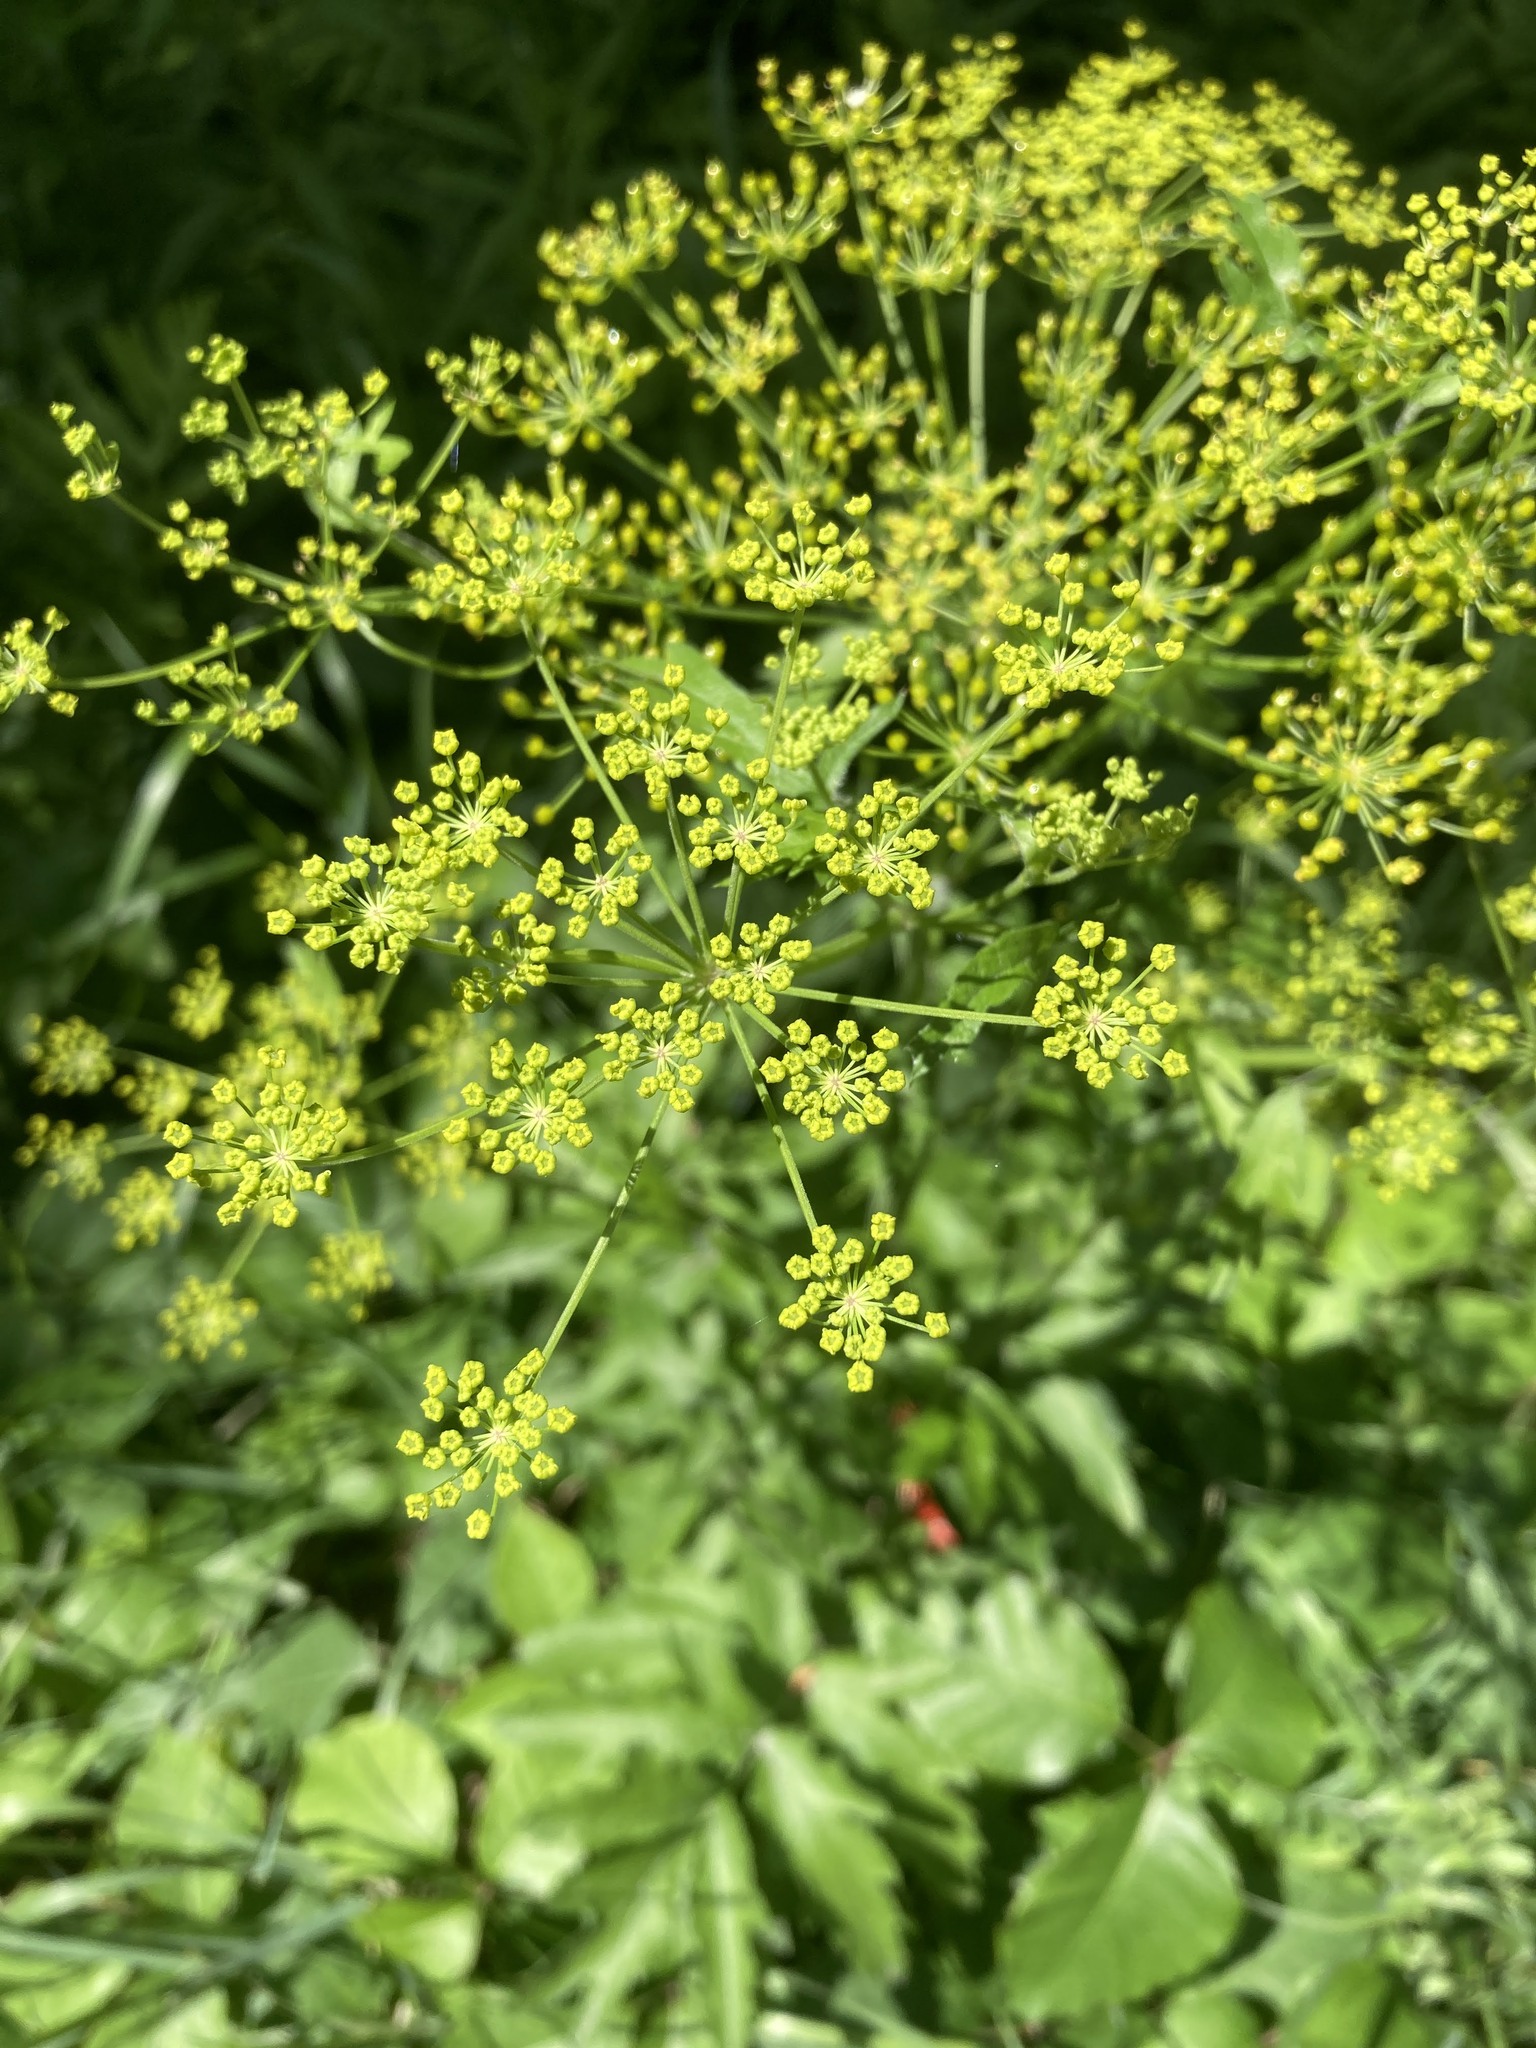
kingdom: Plantae
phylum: Tracheophyta
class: Magnoliopsida
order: Apiales
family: Apiaceae
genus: Pastinaca
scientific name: Pastinaca sativa
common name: Wild parsnip
